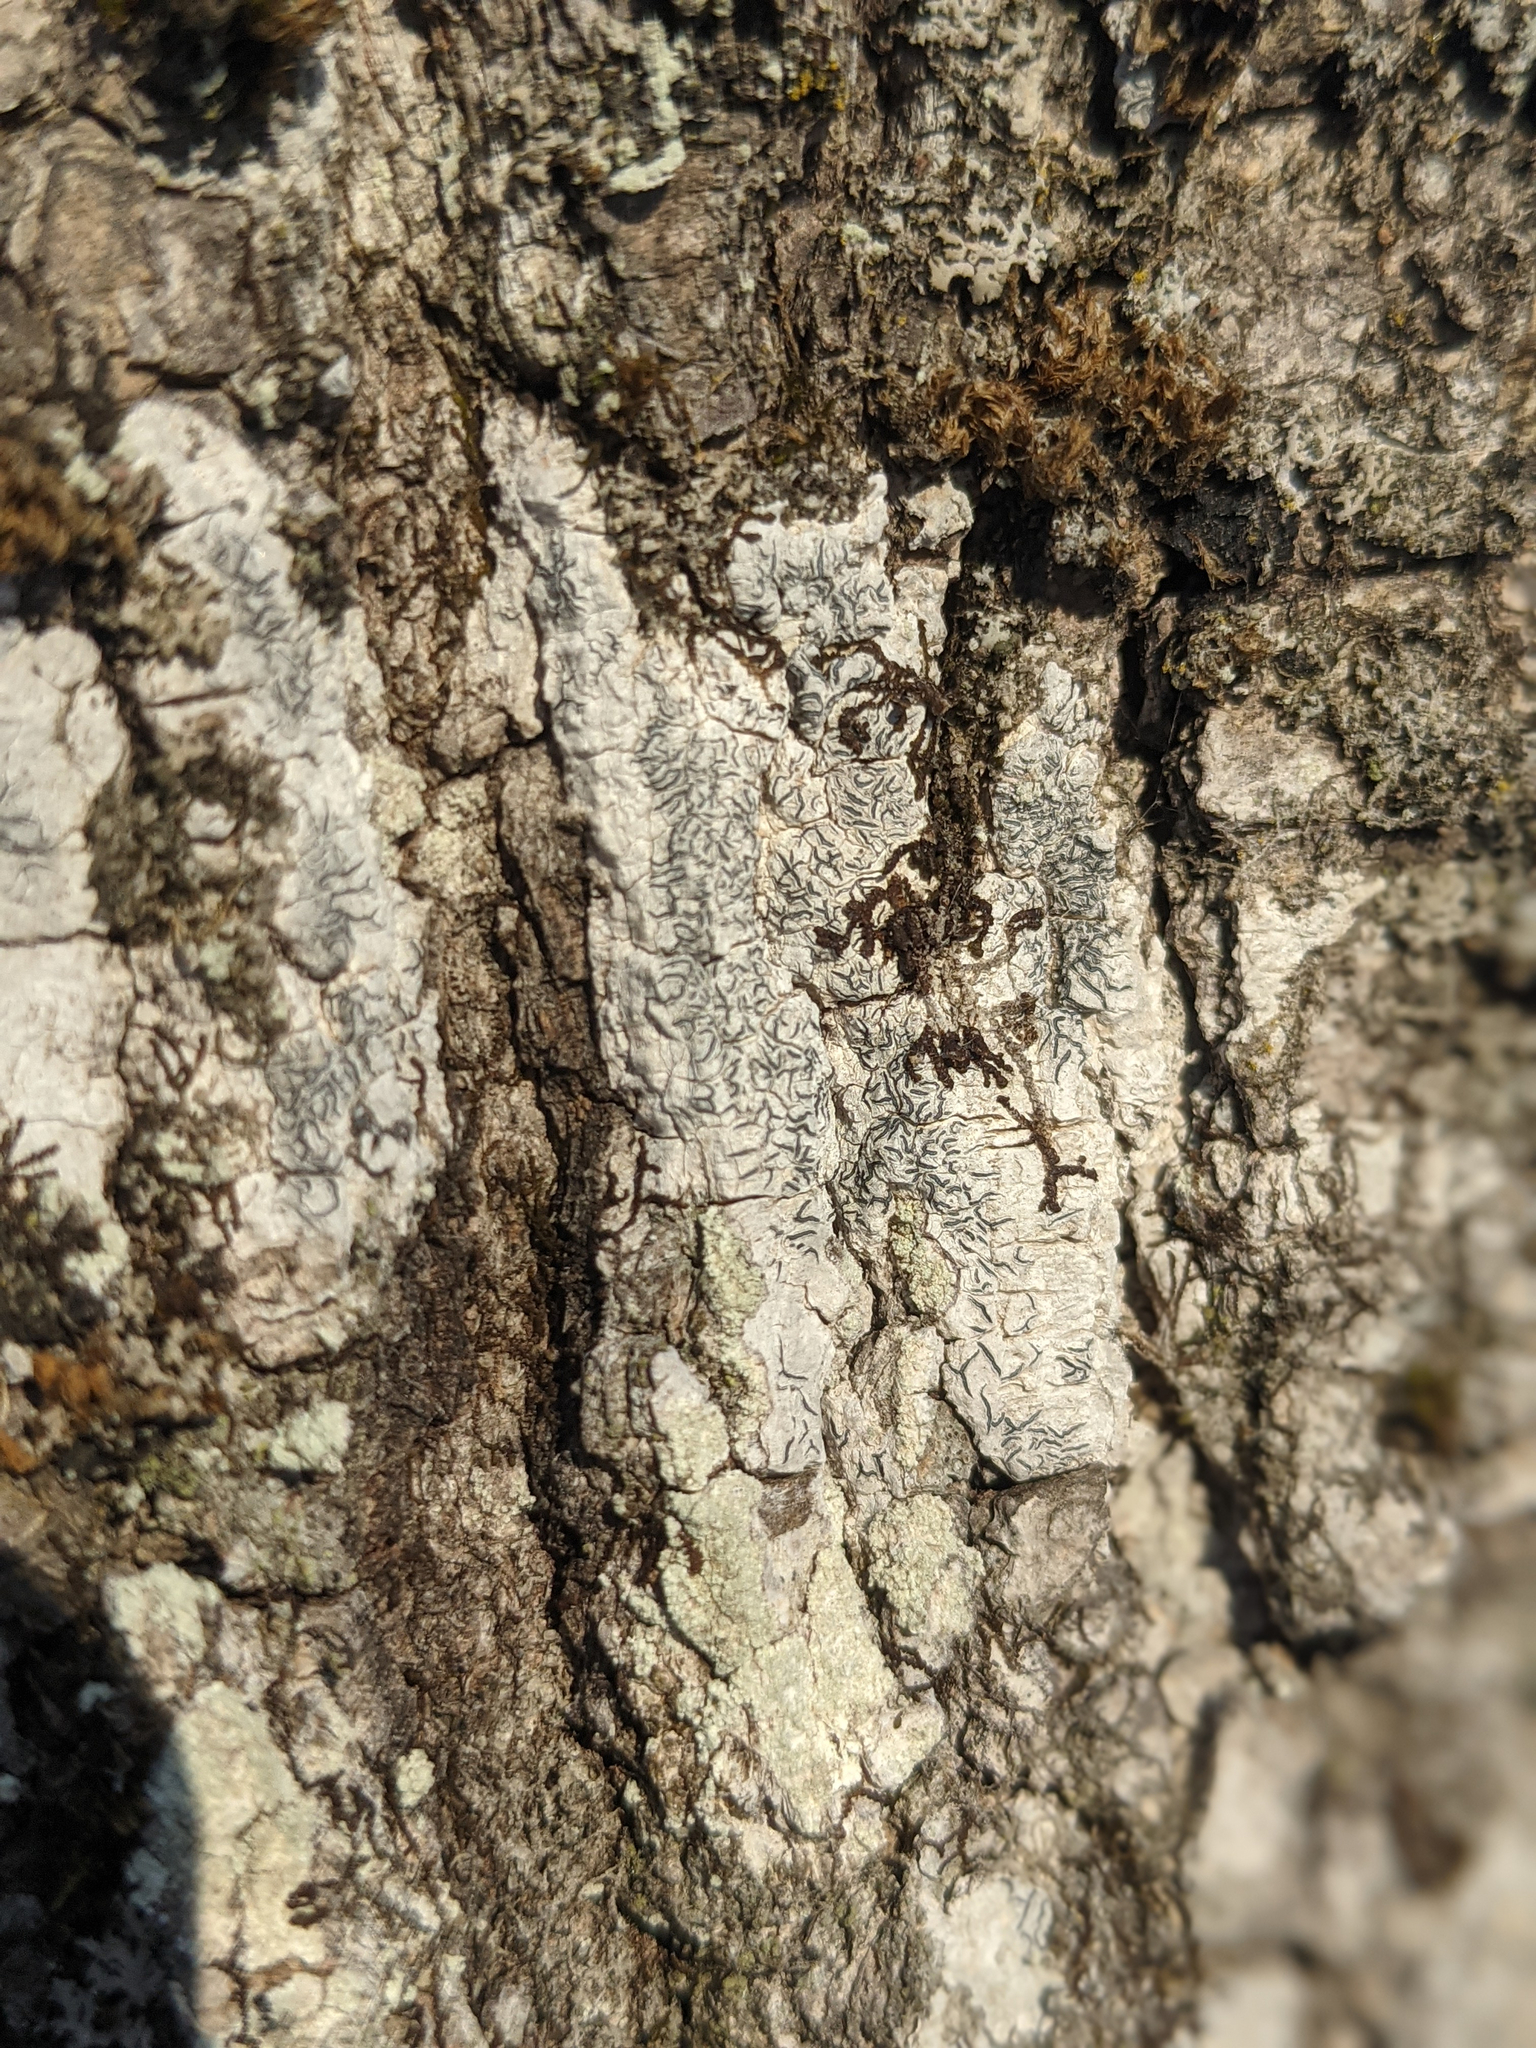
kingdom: Fungi
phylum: Ascomycota
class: Lecanoromycetes
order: Ostropales
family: Graphidaceae
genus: Graphis
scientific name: Graphis scripta
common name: Script lichen
